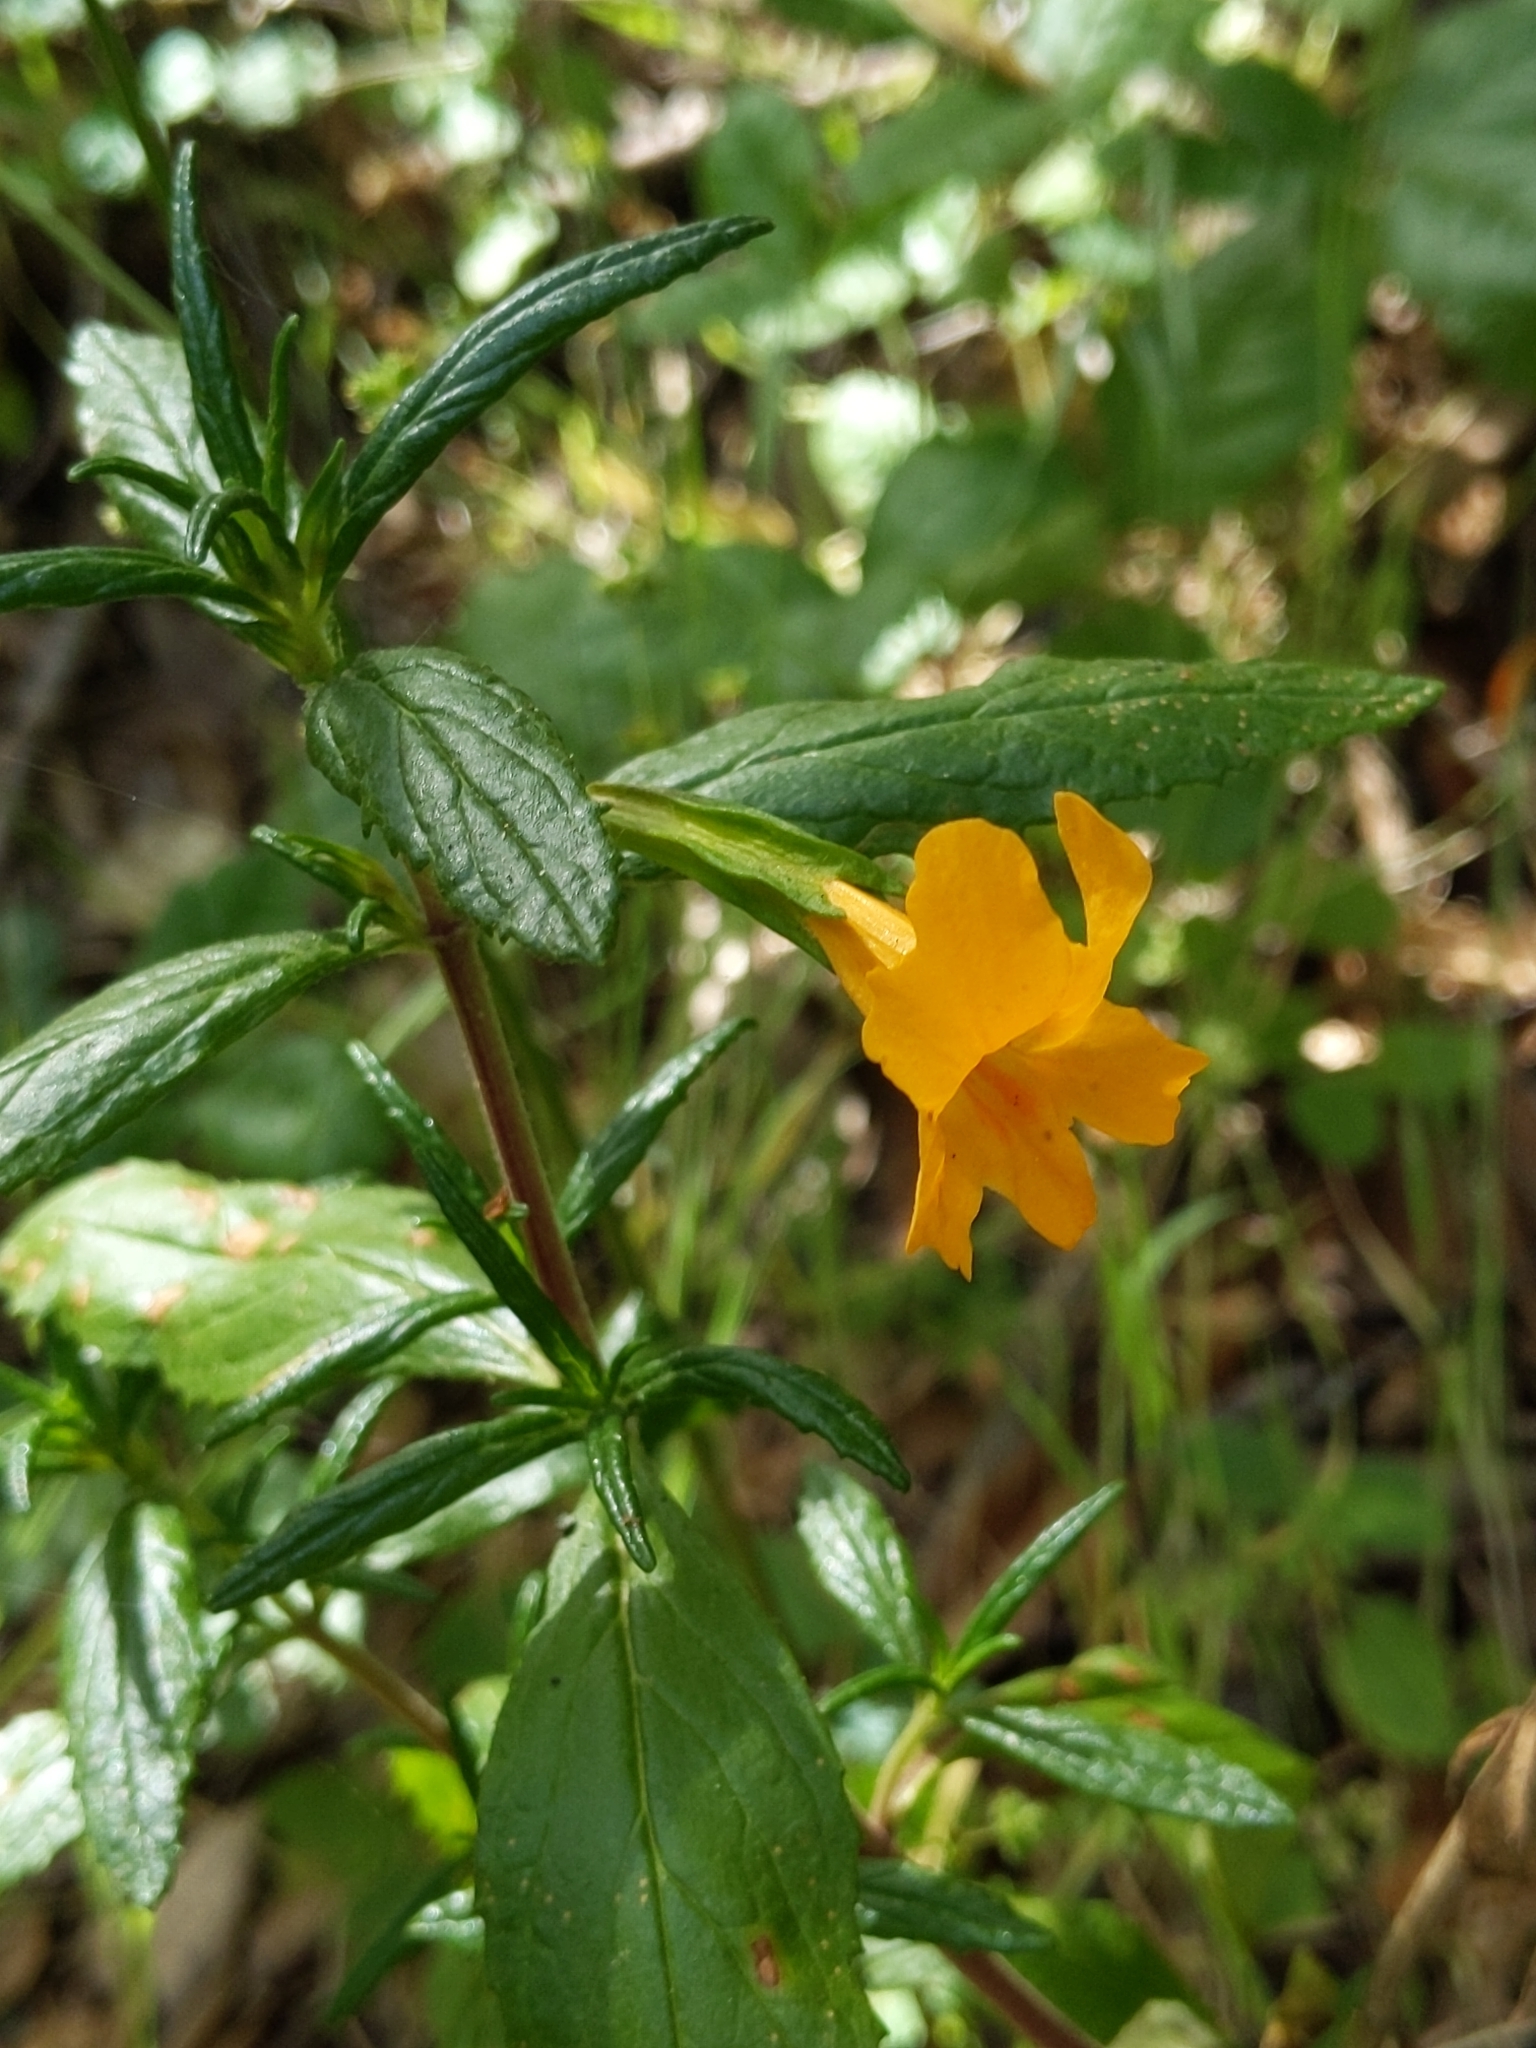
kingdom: Plantae
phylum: Tracheophyta
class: Magnoliopsida
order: Lamiales
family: Phrymaceae
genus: Diplacus
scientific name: Diplacus aurantiacus
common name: Bush monkey-flower
